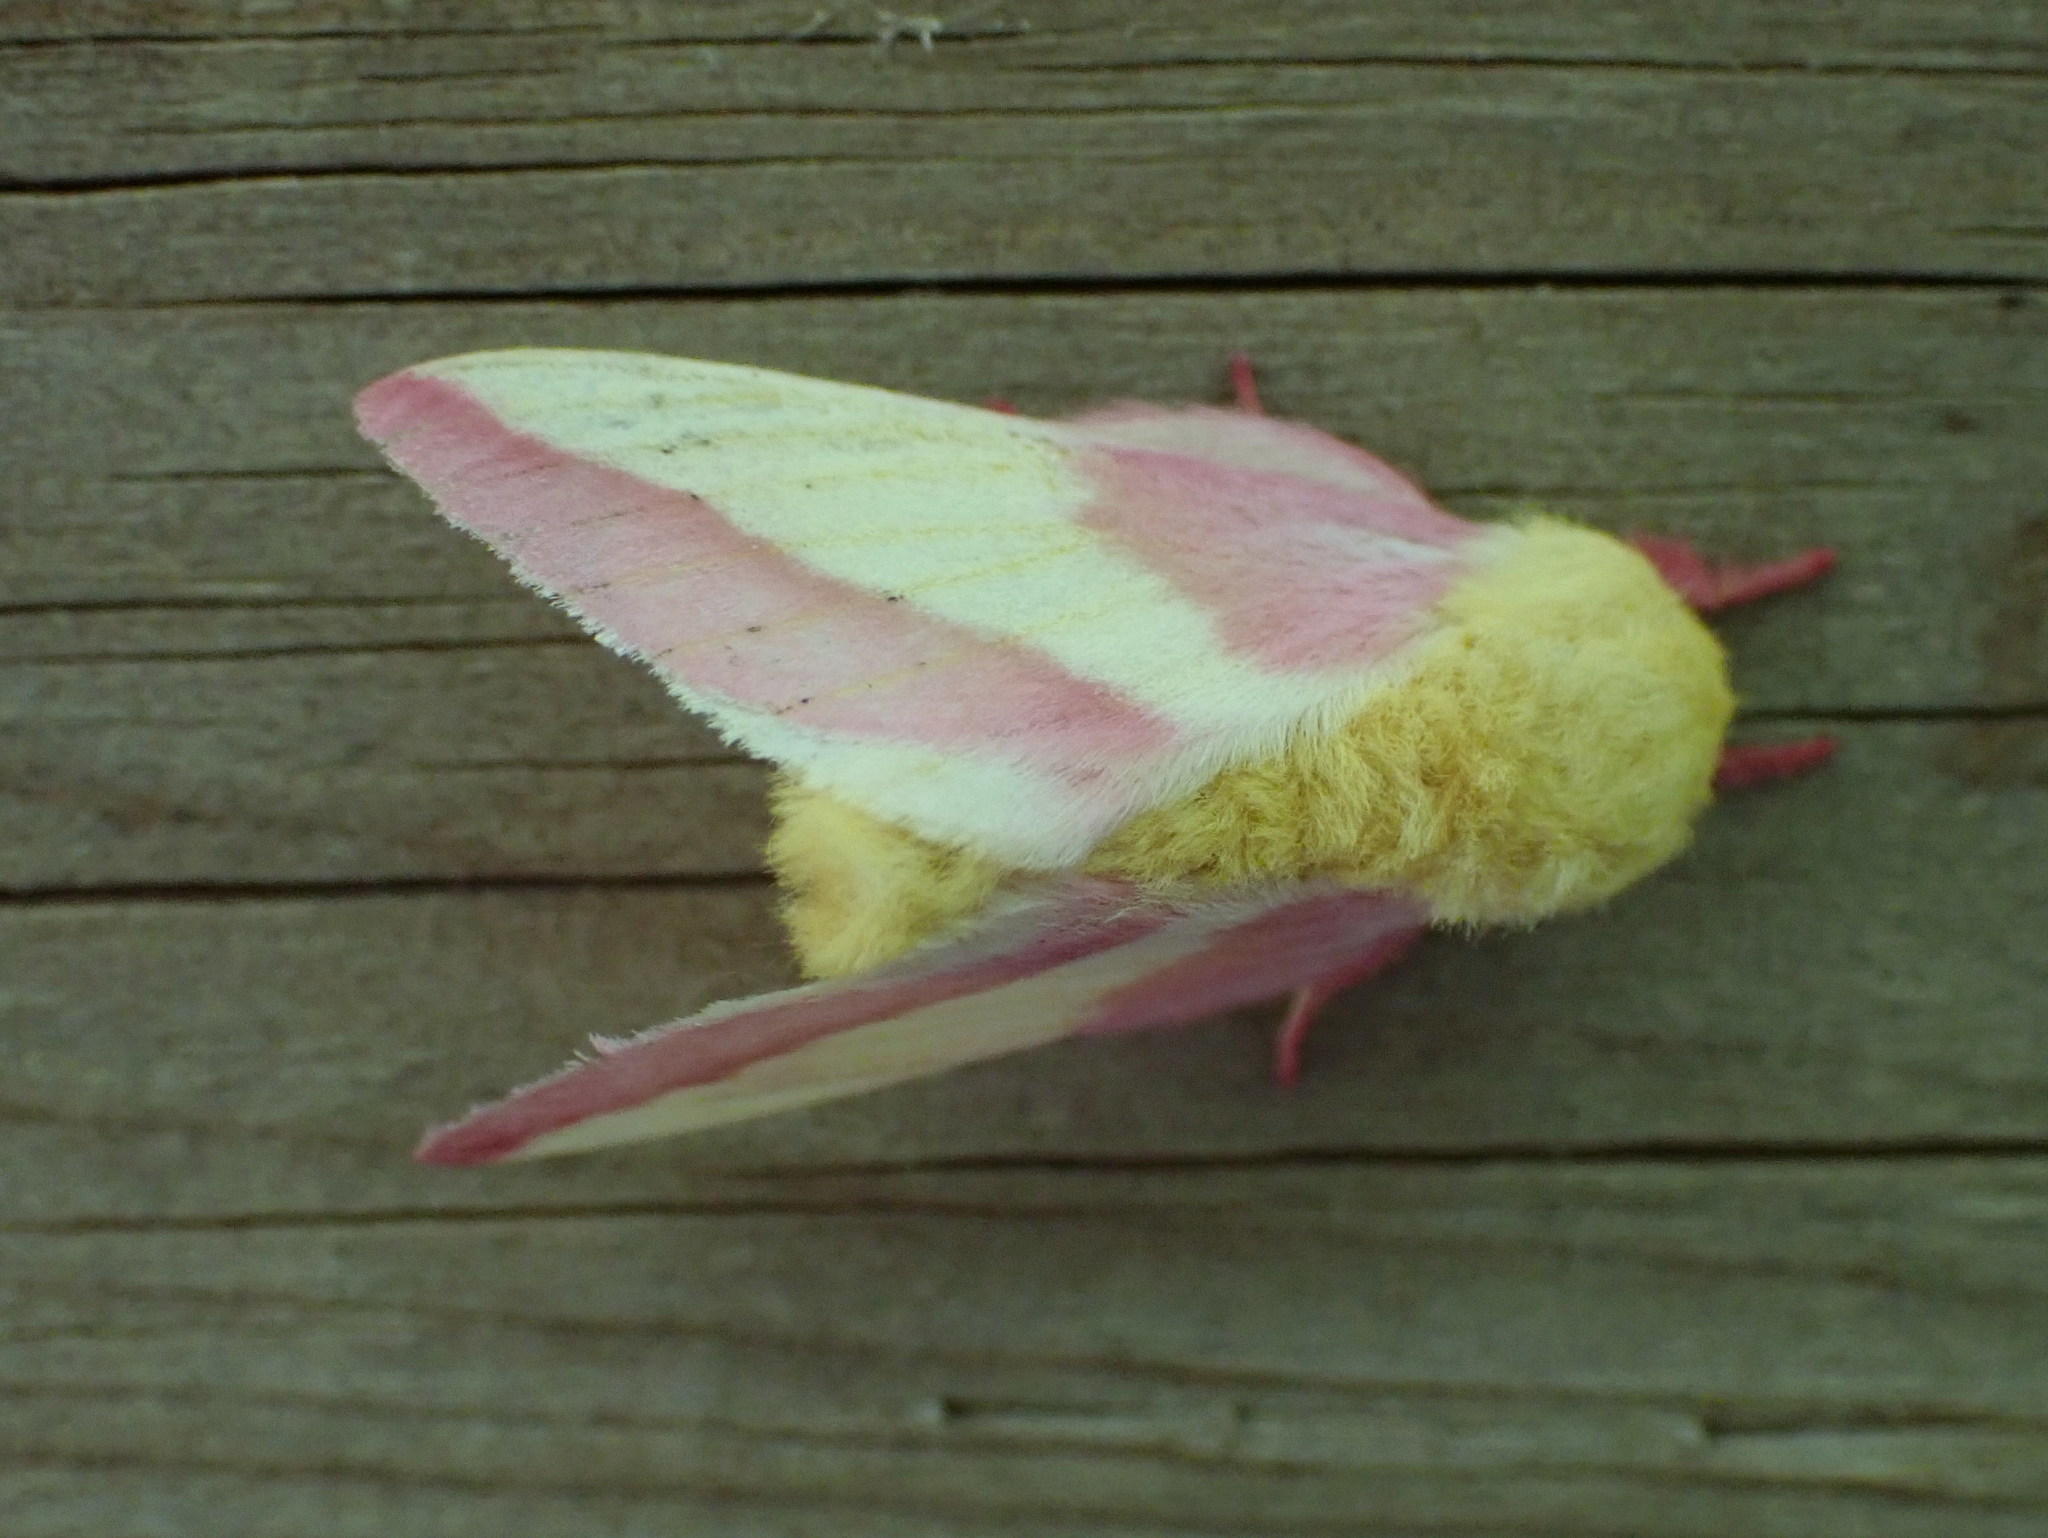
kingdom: Animalia
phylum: Arthropoda
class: Insecta
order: Lepidoptera
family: Saturniidae
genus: Dryocampa
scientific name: Dryocampa rubicunda
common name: Rosy maple moth
